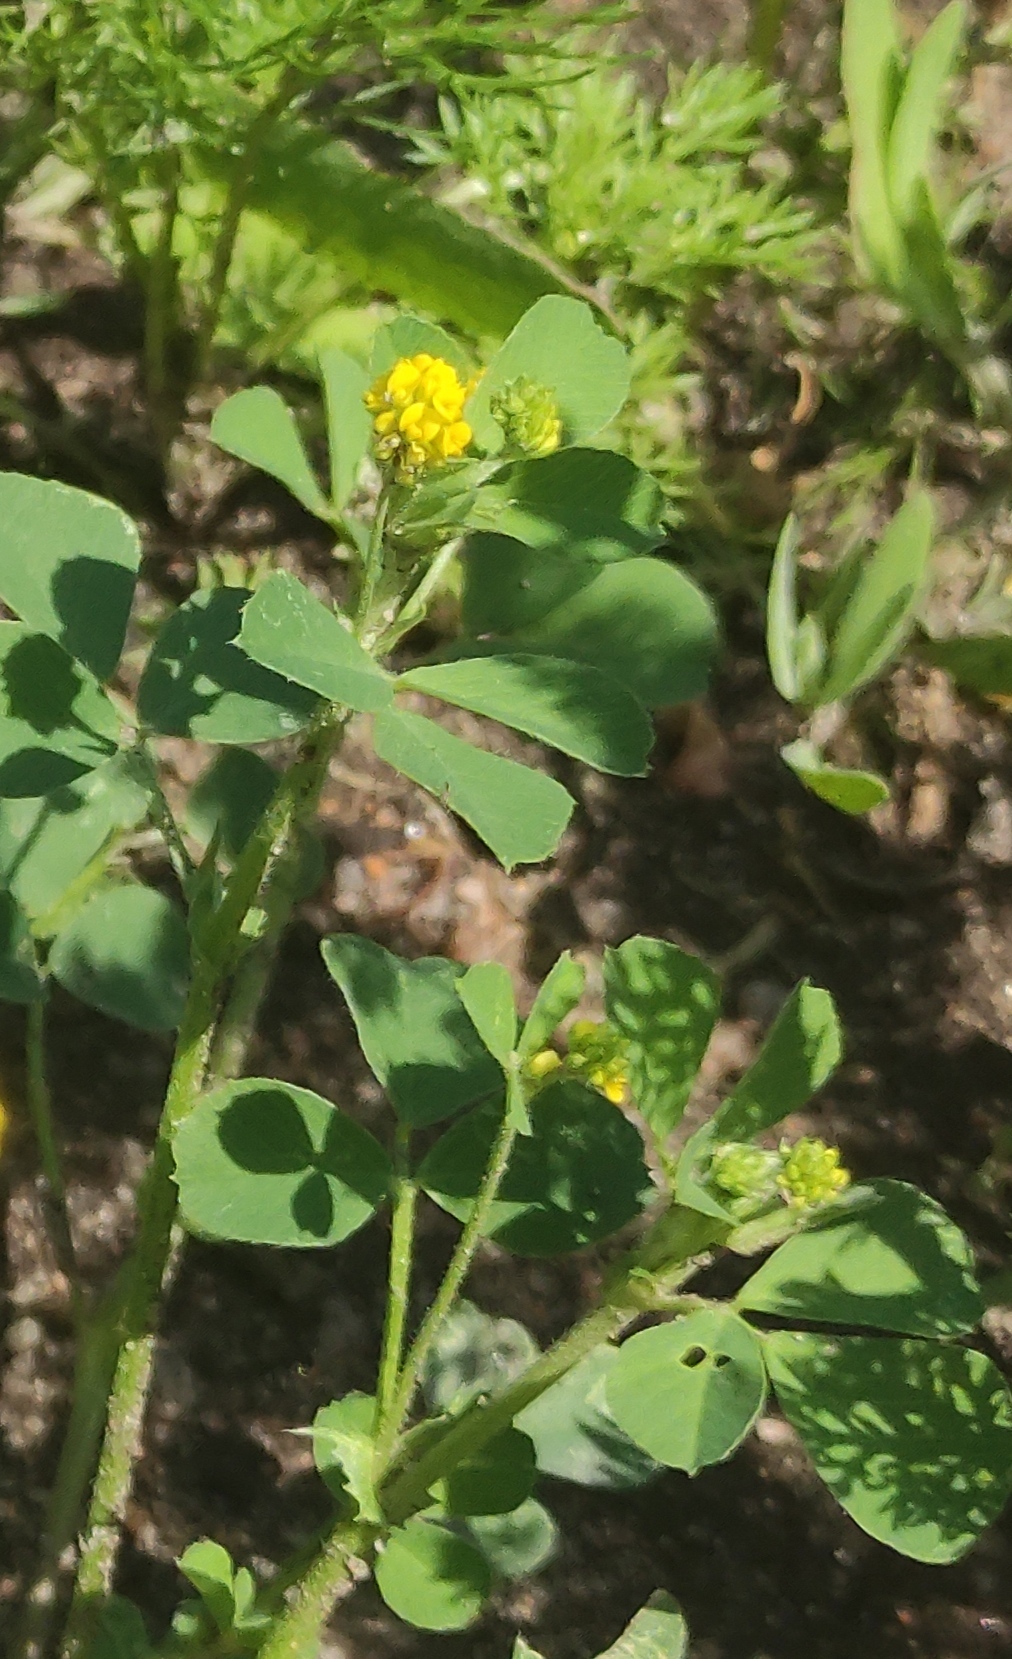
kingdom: Plantae
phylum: Tracheophyta
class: Magnoliopsida
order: Fabales
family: Fabaceae
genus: Medicago
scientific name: Medicago lupulina
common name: Black medick
